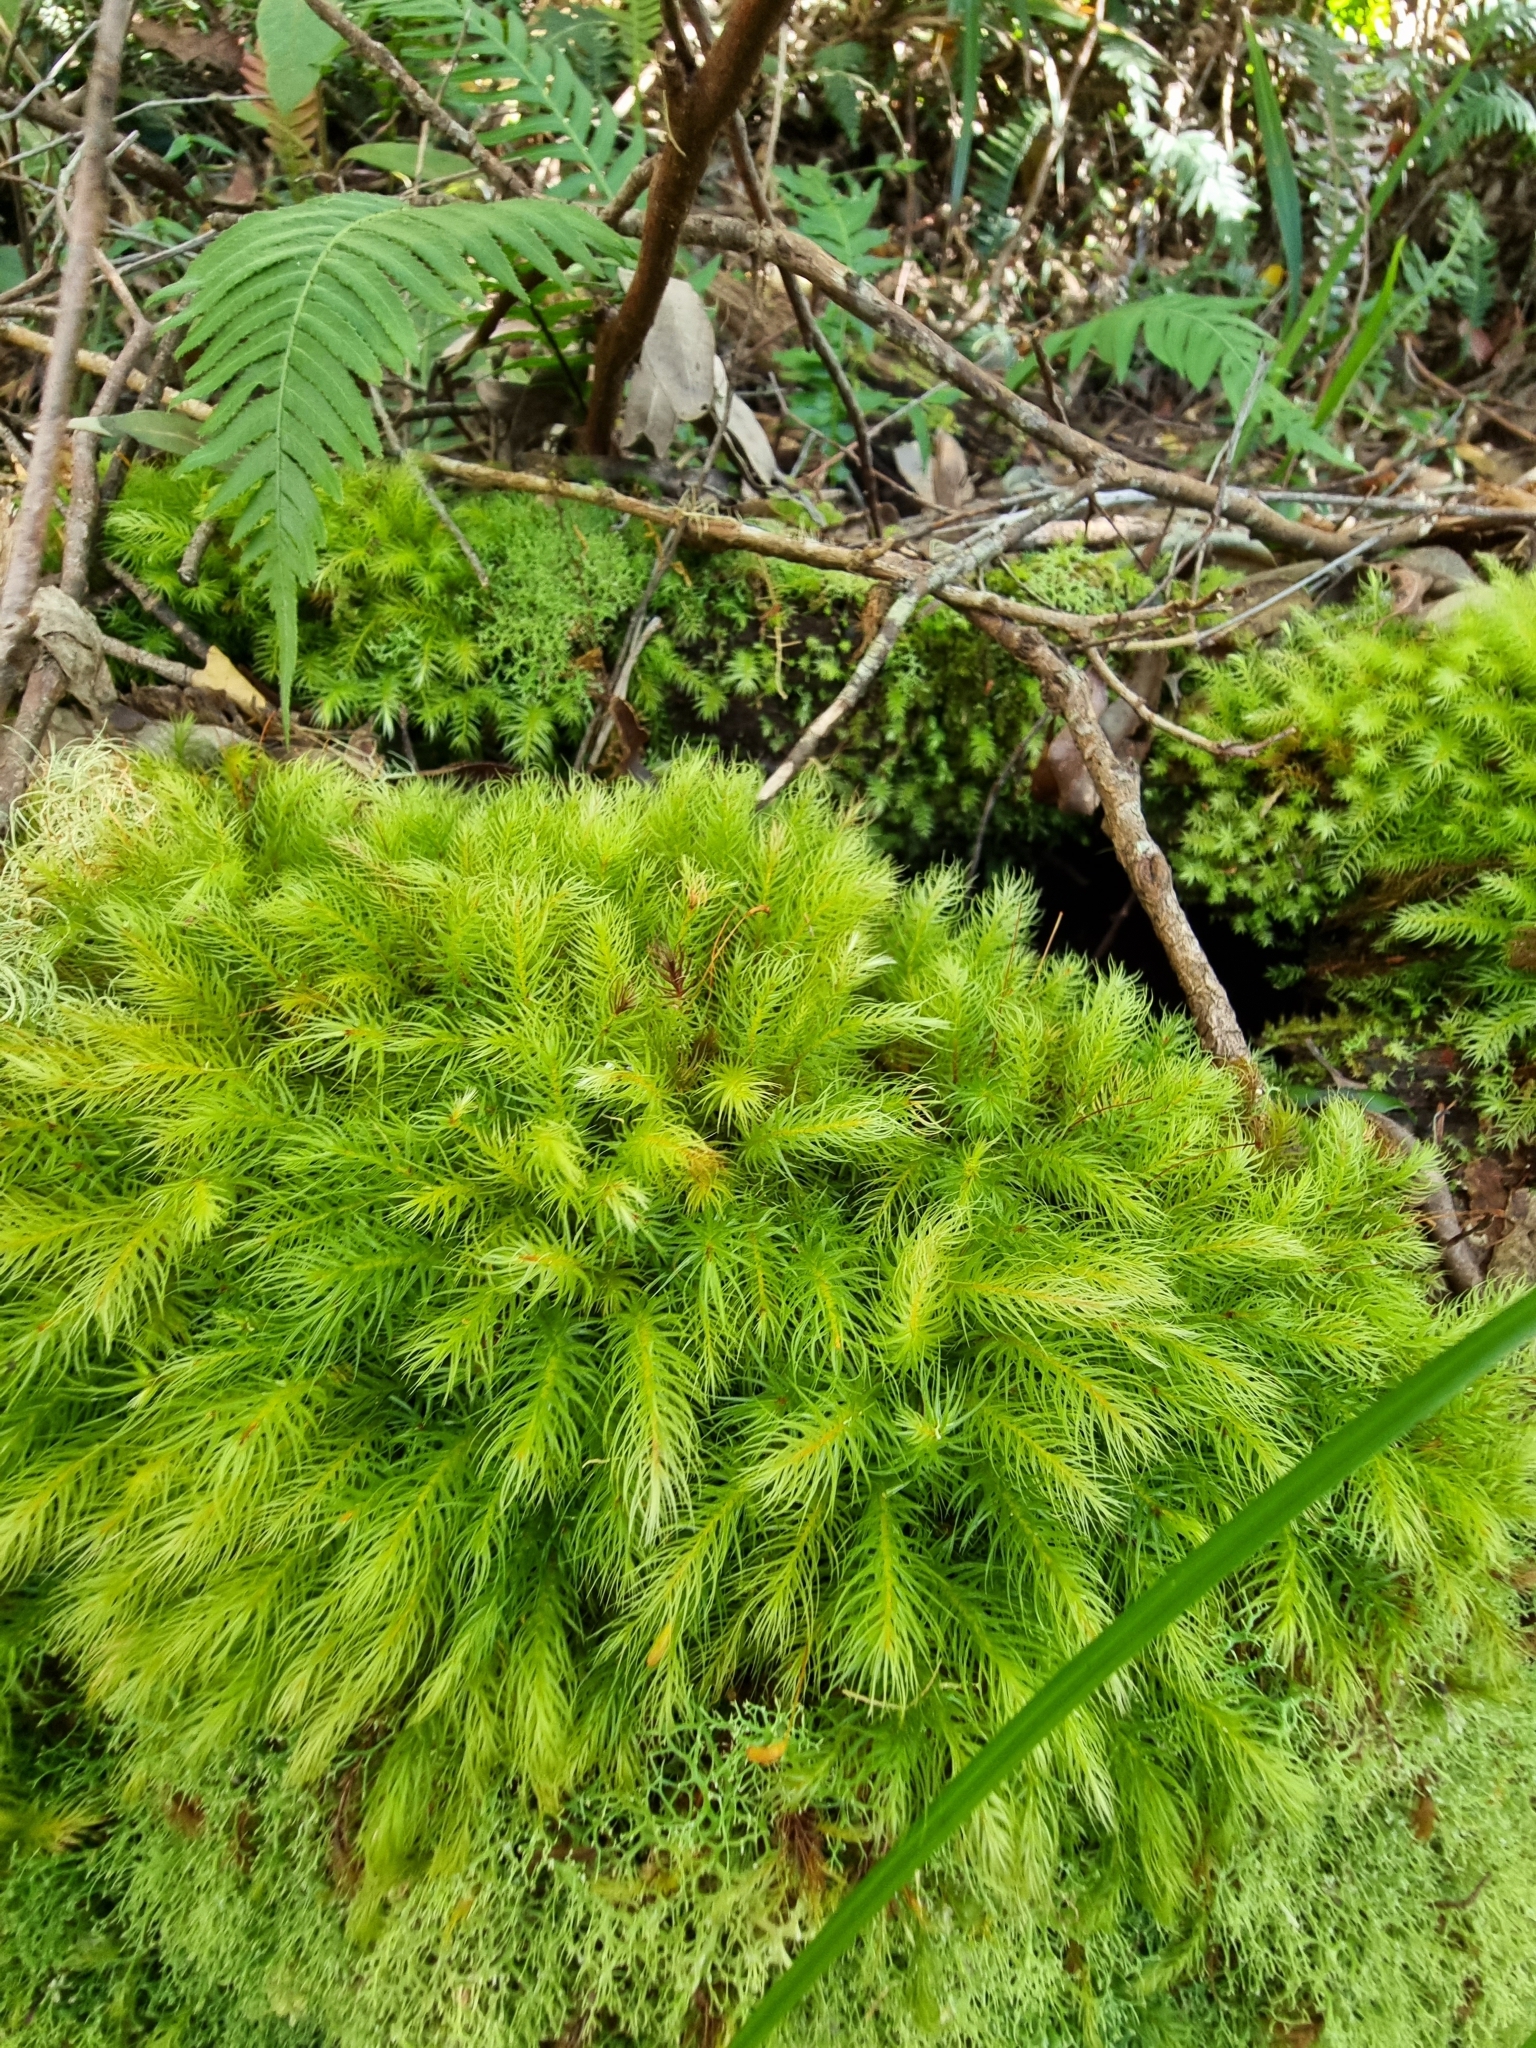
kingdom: Plantae
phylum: Bryophyta
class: Bryopsida
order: Rhizogoniales
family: Calomniaceae
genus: Pyrrhobryum
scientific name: Pyrrhobryum paramattense
